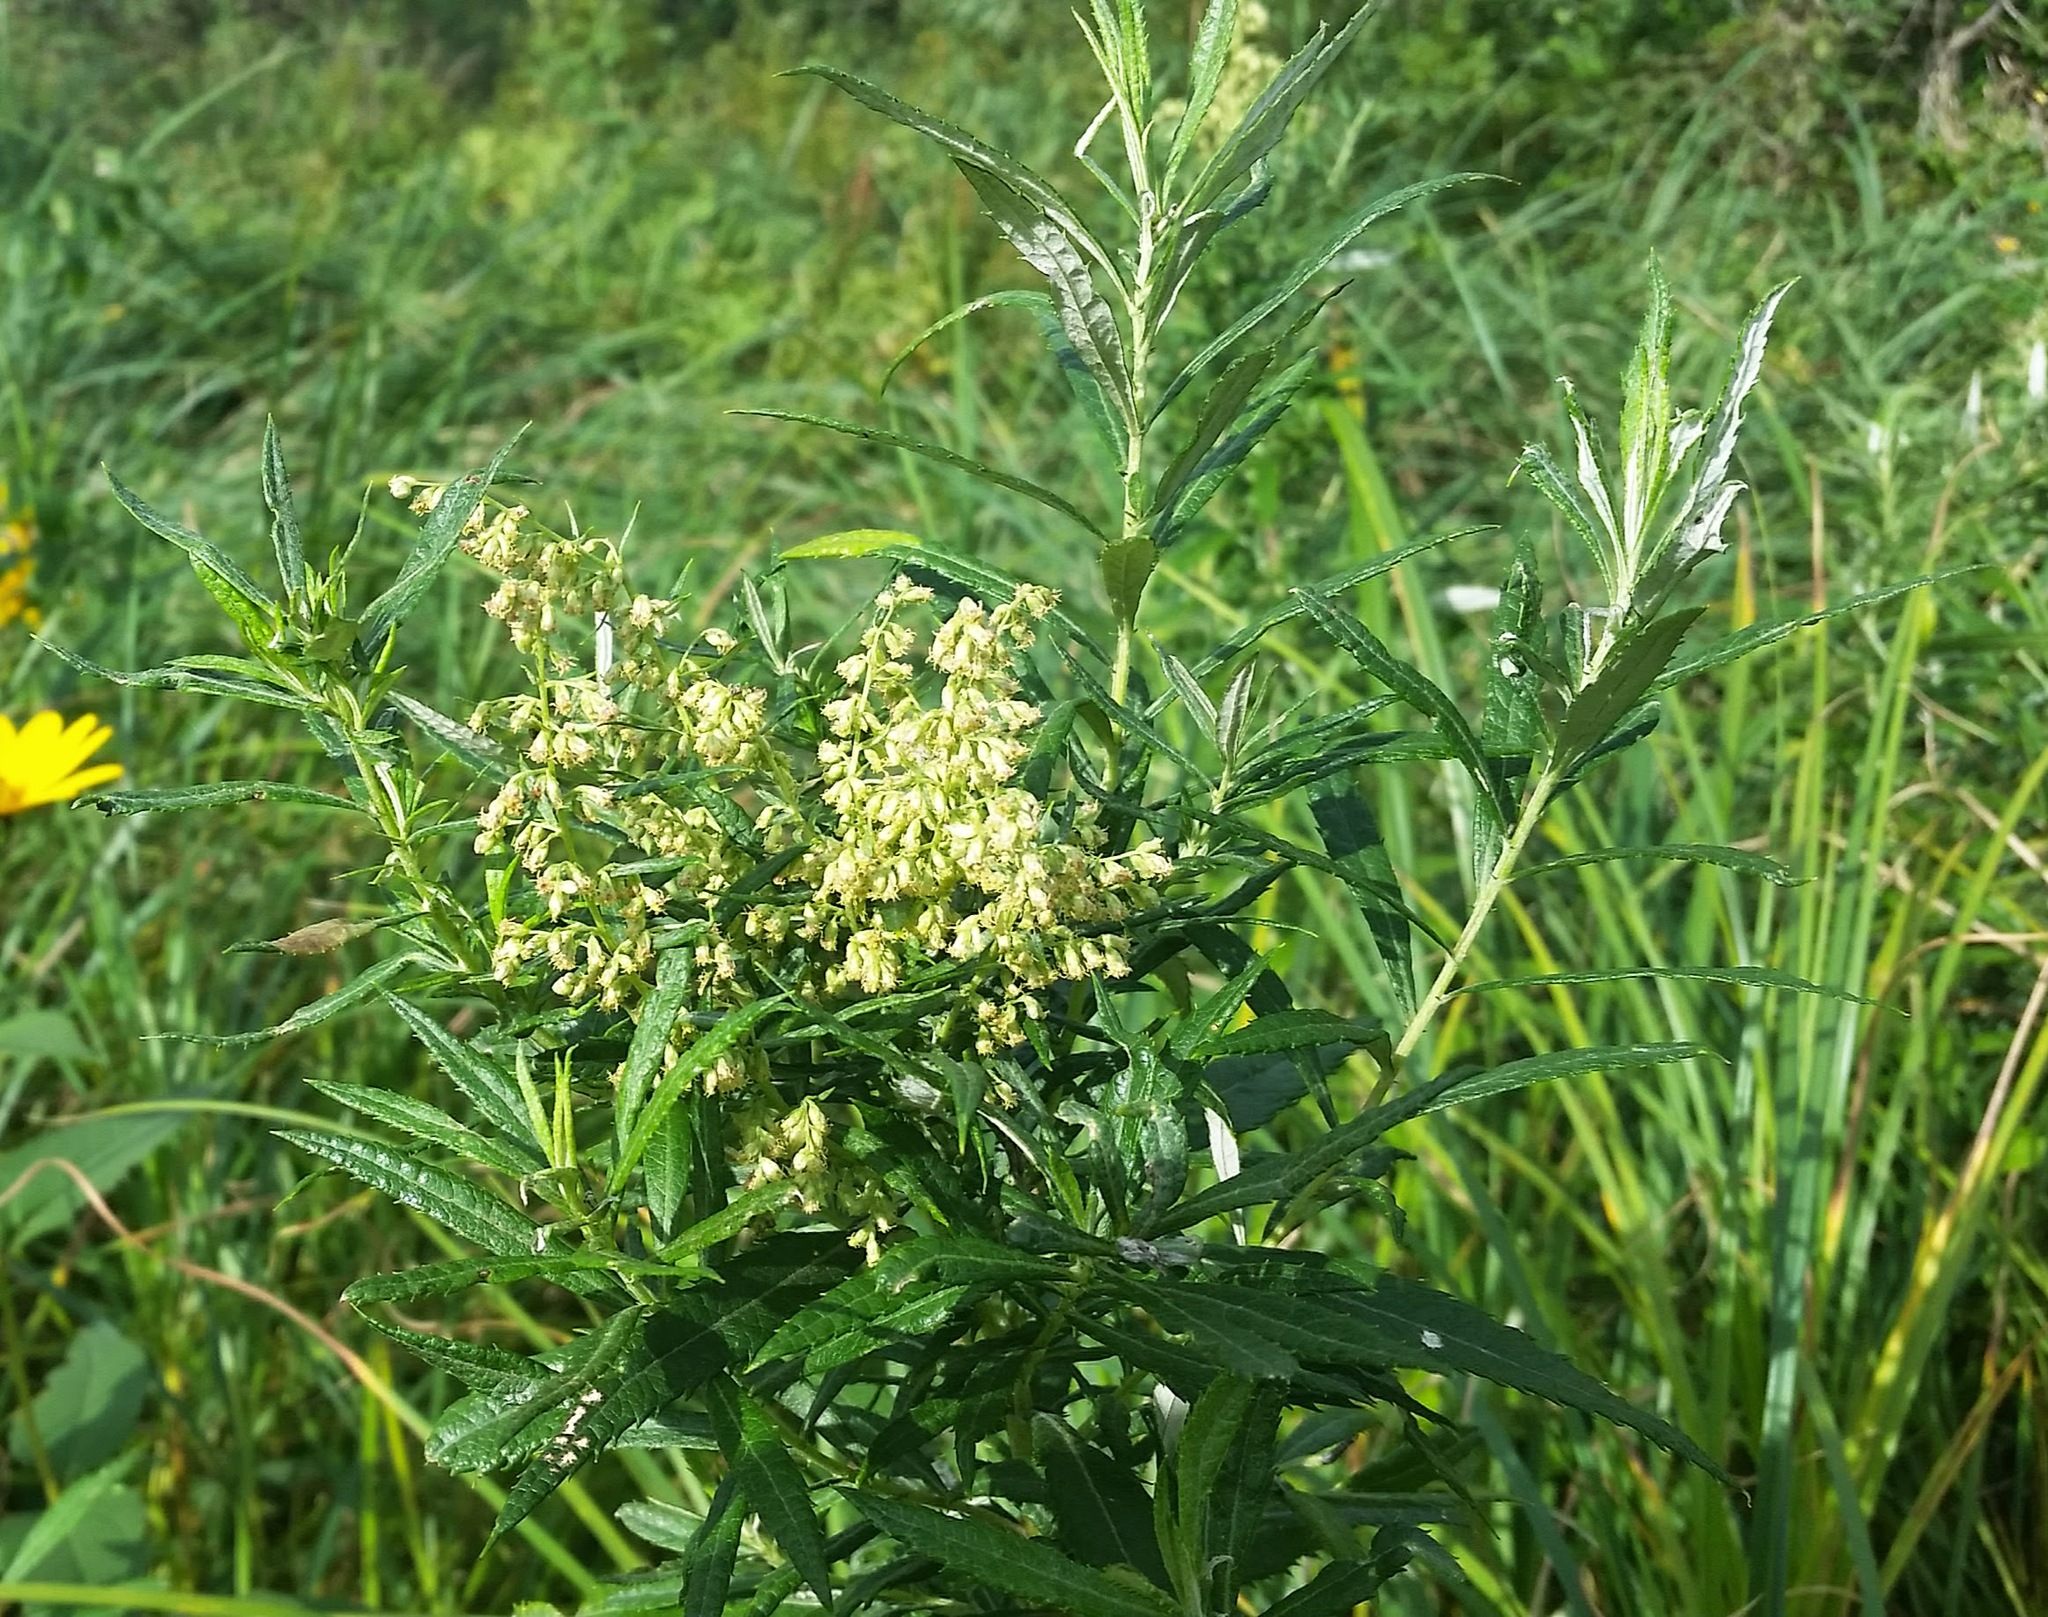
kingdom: Plantae
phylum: Tracheophyta
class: Magnoliopsida
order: Asterales
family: Asteraceae
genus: Artemisia
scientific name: Artemisia serrata
